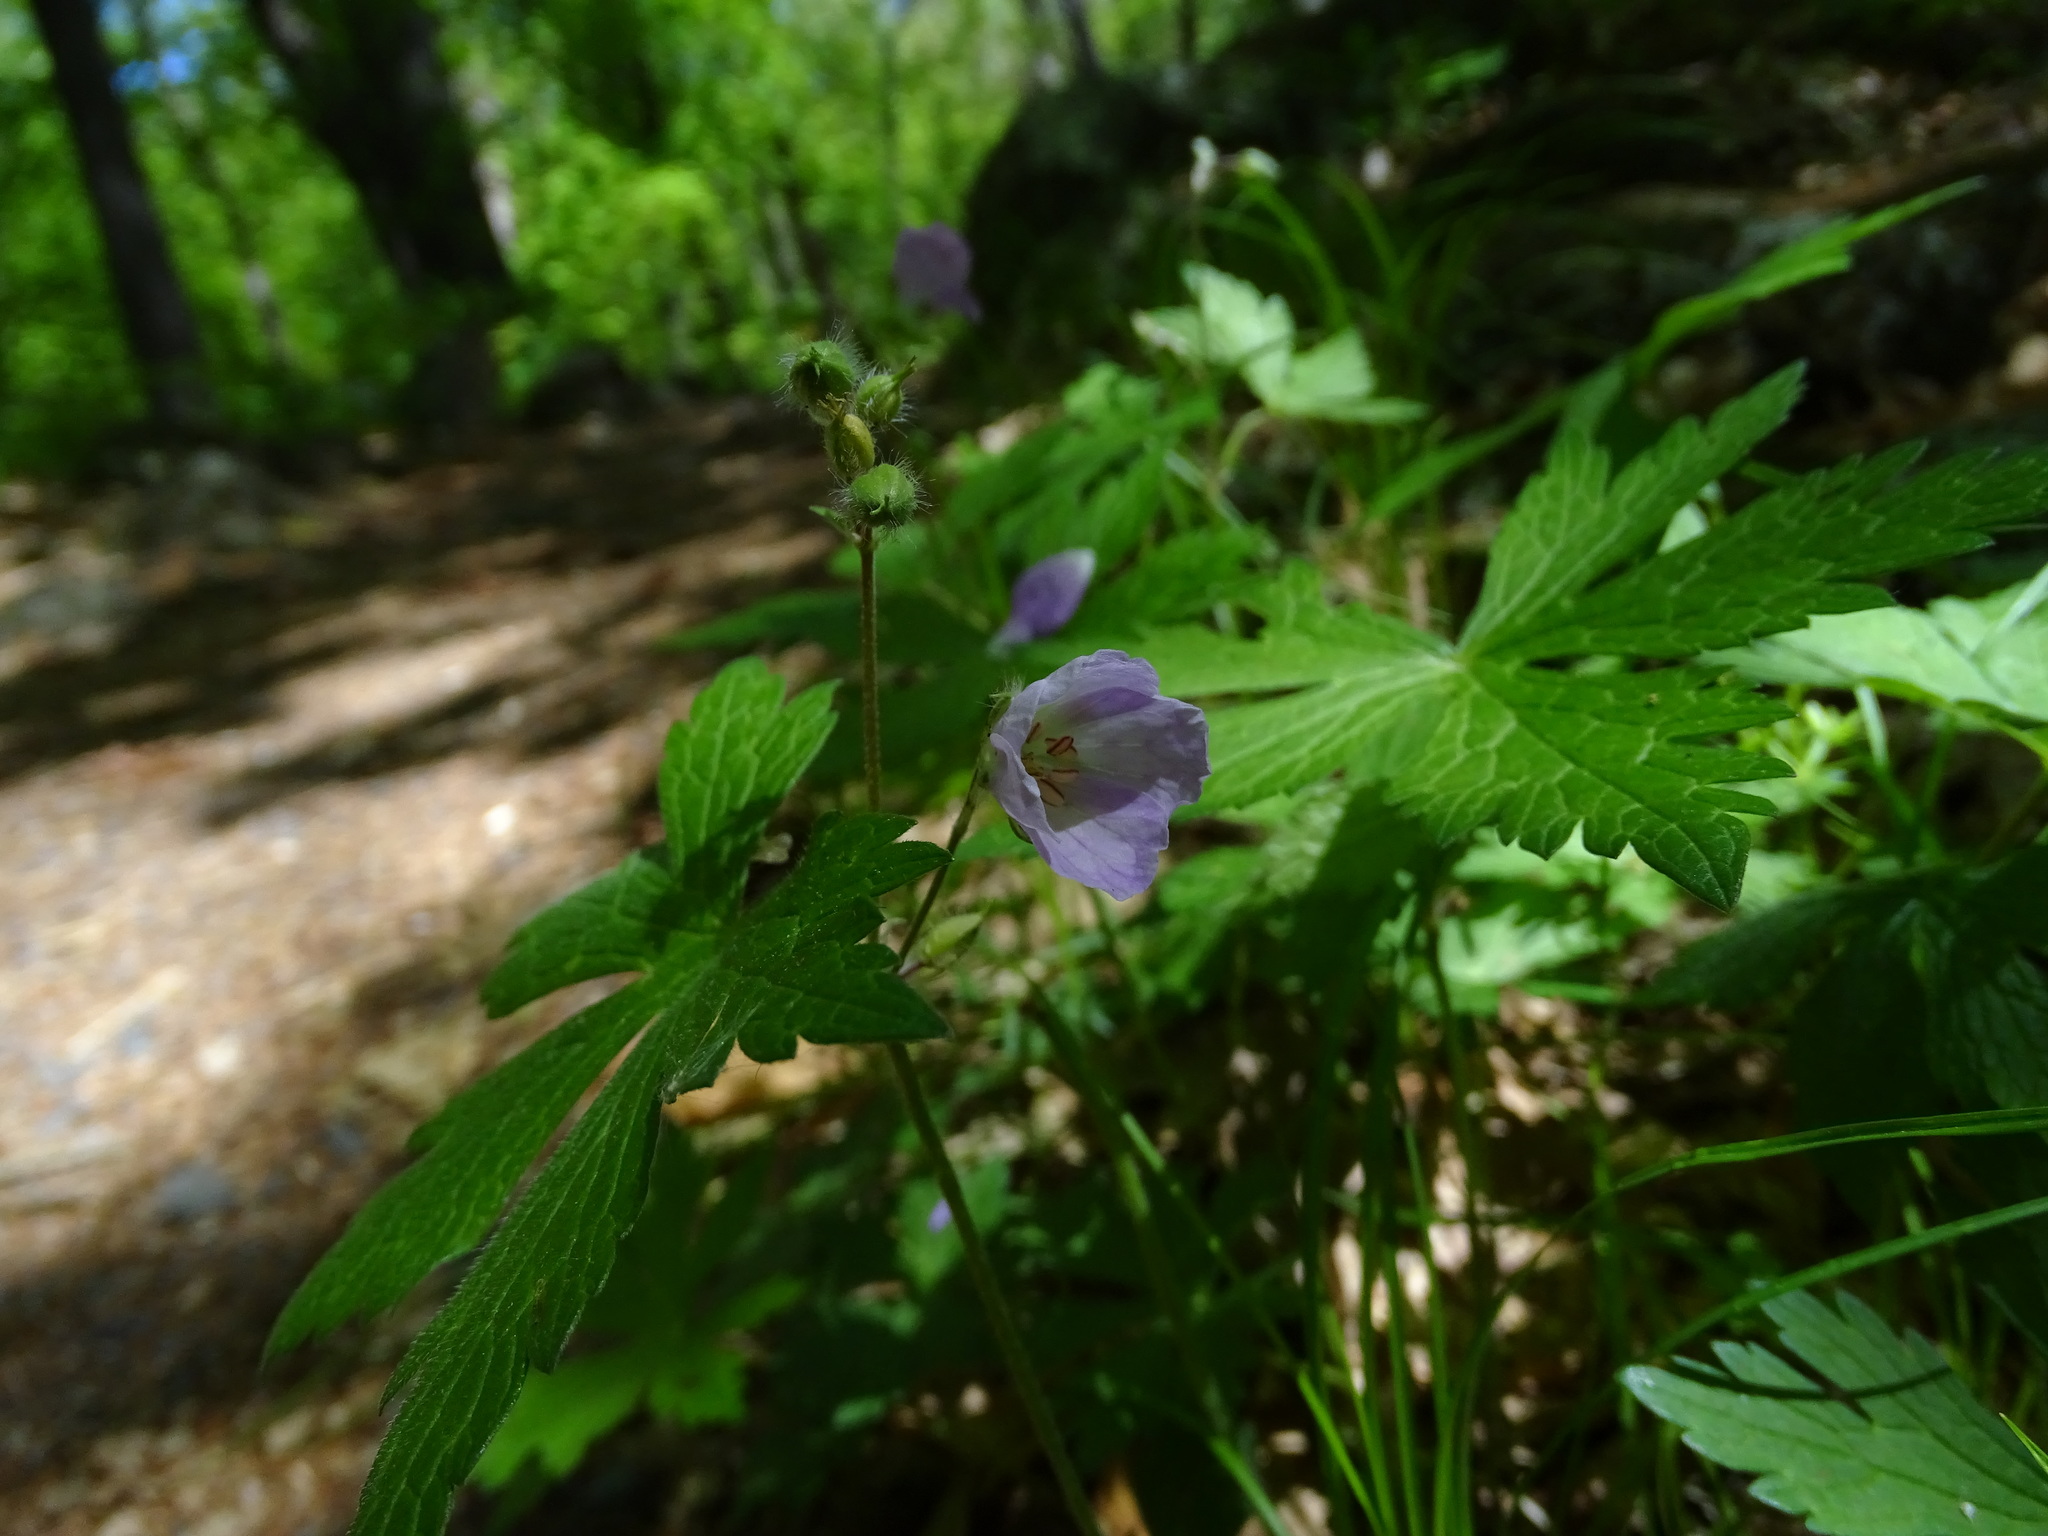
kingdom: Plantae
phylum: Tracheophyta
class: Magnoliopsida
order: Geraniales
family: Geraniaceae
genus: Geranium
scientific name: Geranium maculatum
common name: Spotted geranium
